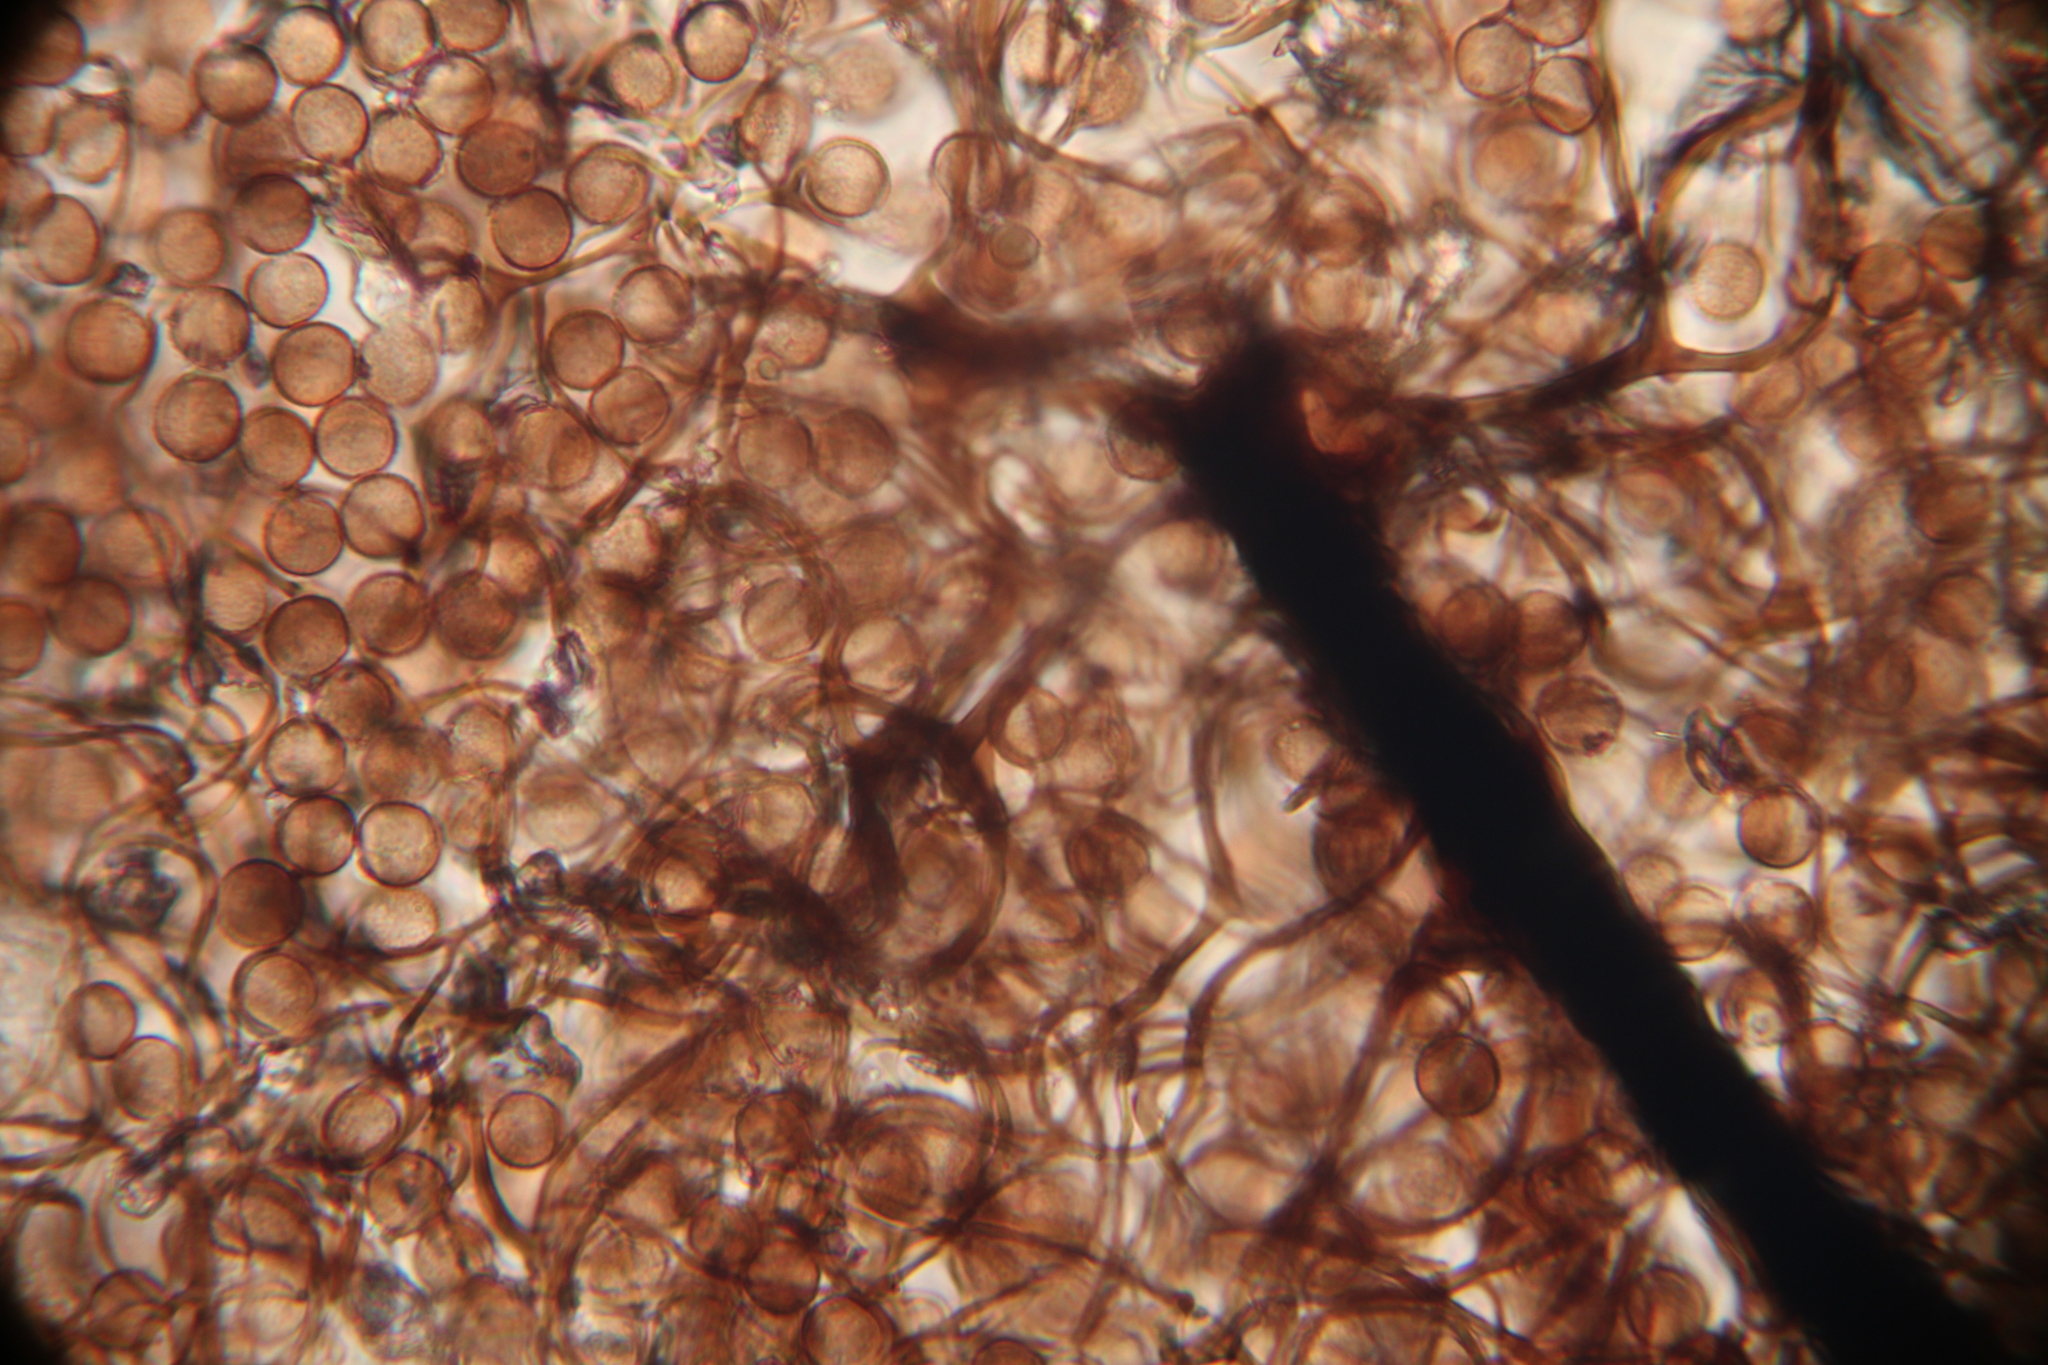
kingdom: Protozoa
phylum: Mycetozoa
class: Myxomycetes
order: Stemonitidales
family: Stemonitidaceae
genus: Comatricha
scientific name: Comatricha nigra
